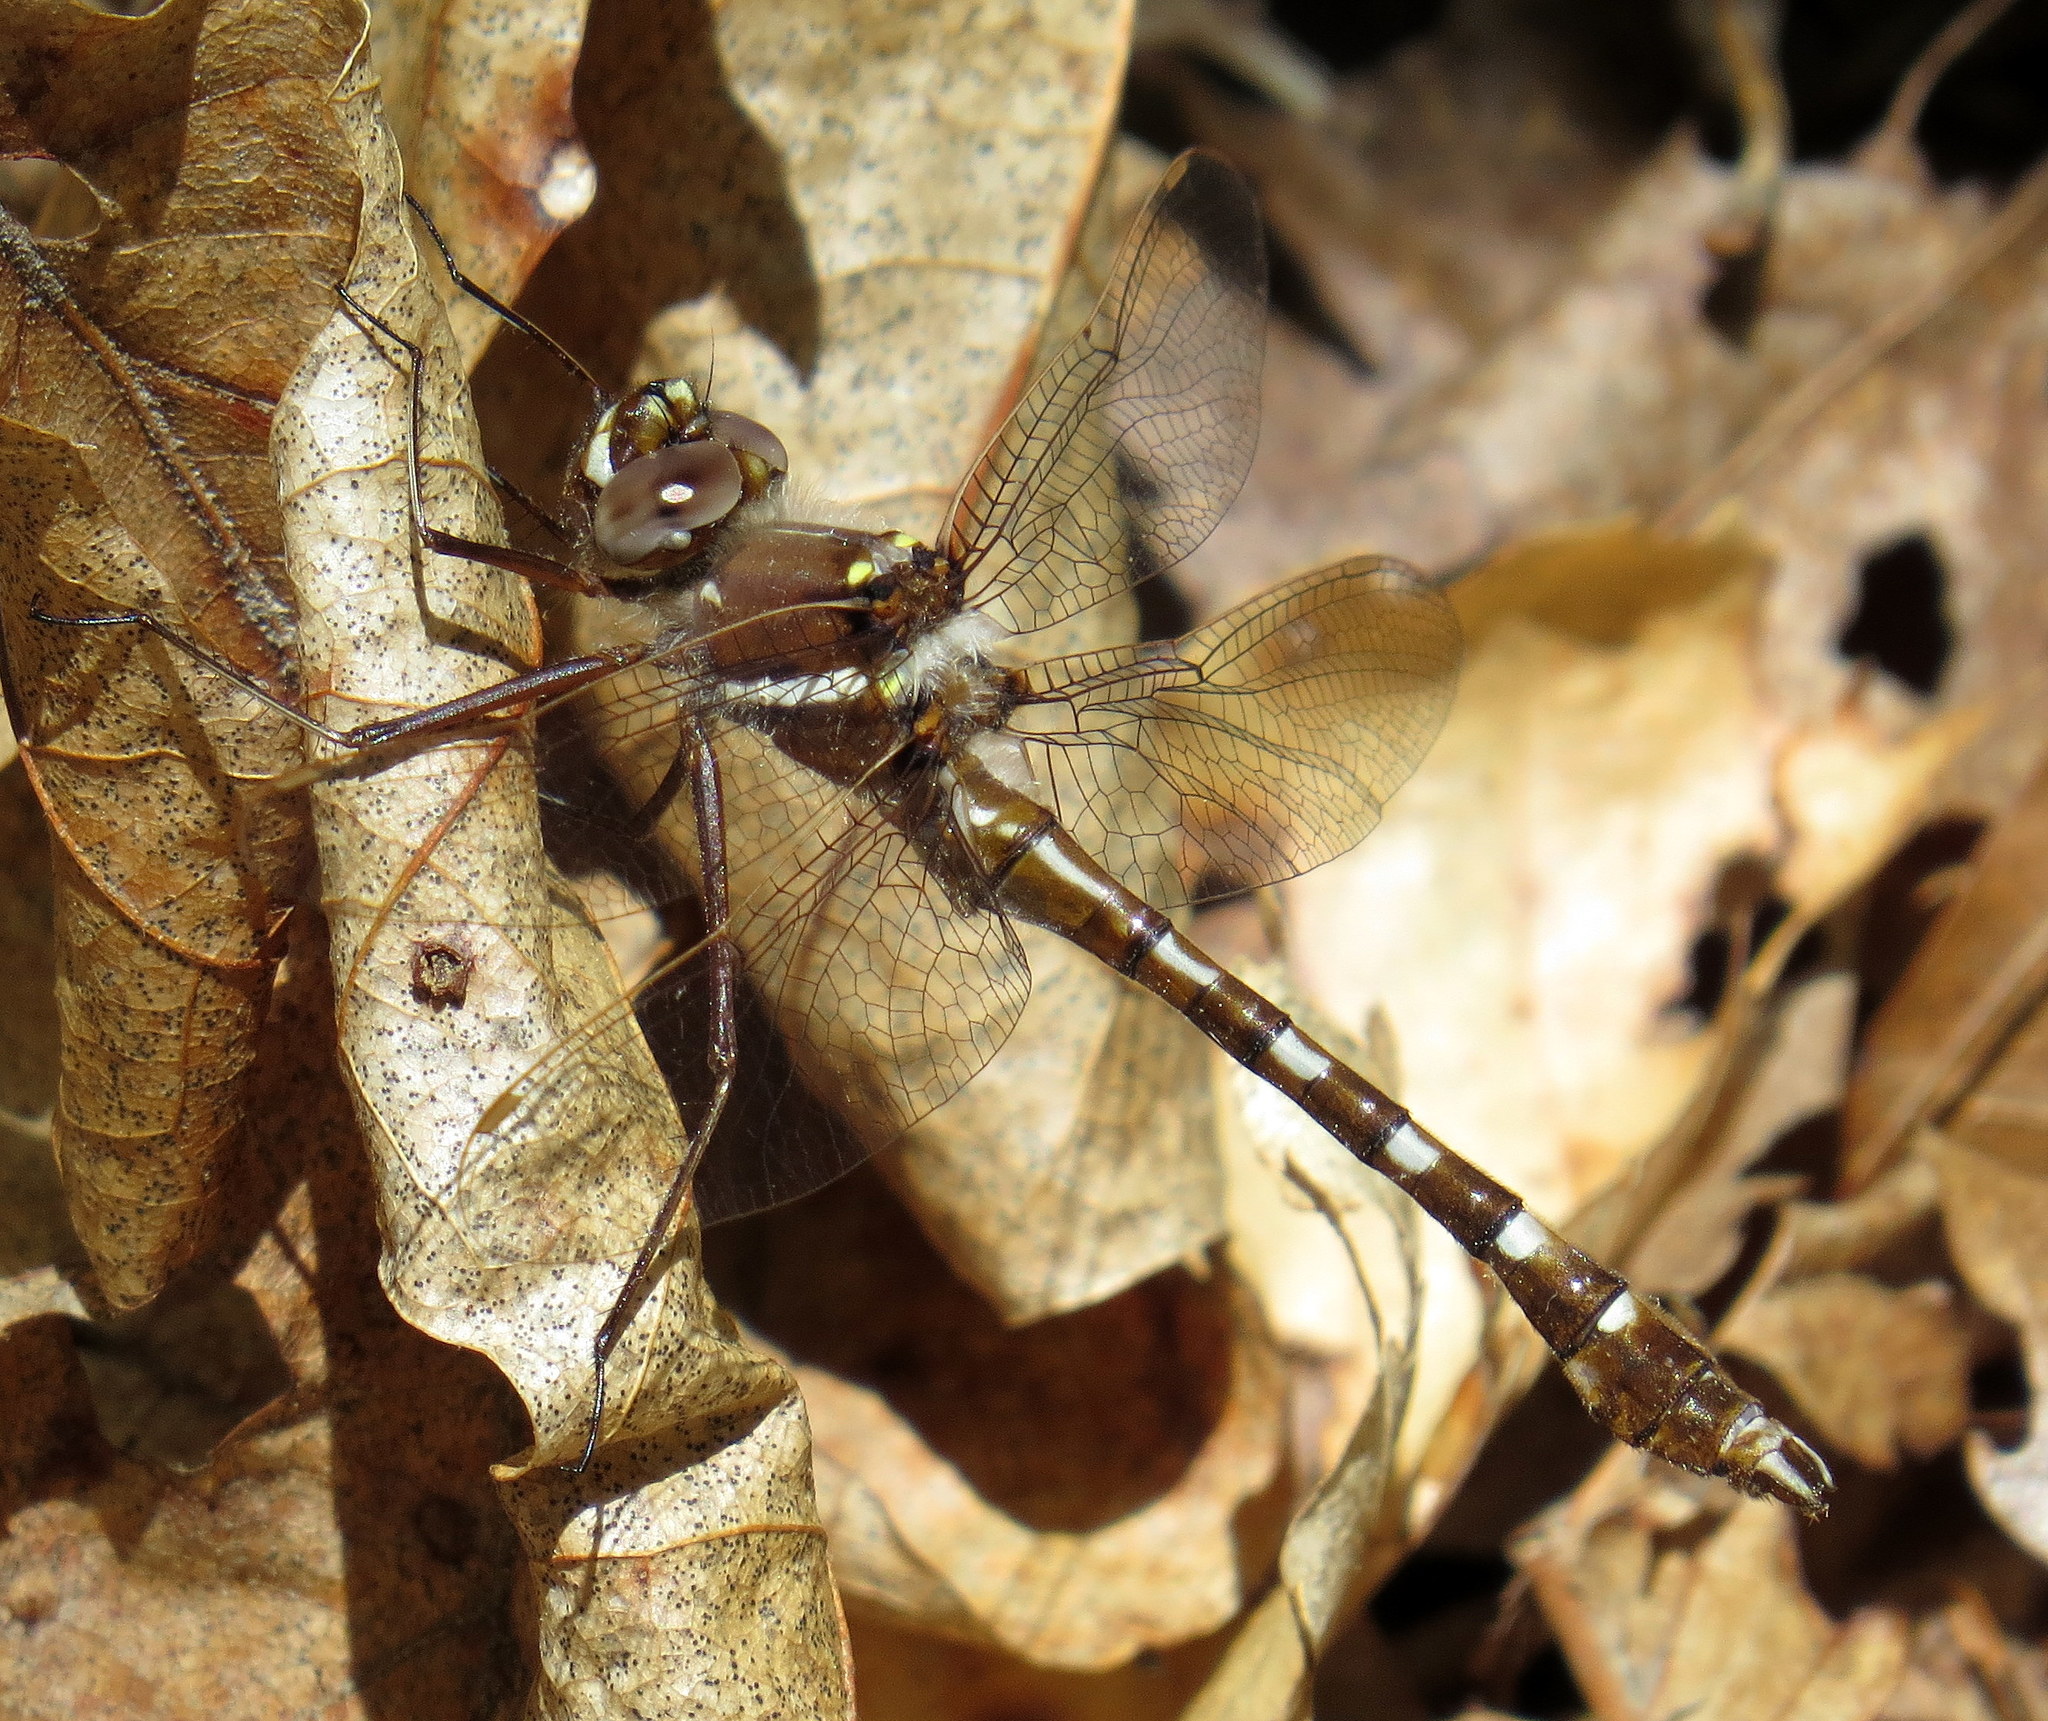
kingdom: Animalia
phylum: Arthropoda
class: Insecta
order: Odonata
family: Macromiidae
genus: Didymops
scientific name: Didymops transversa
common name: Stream cruiser
